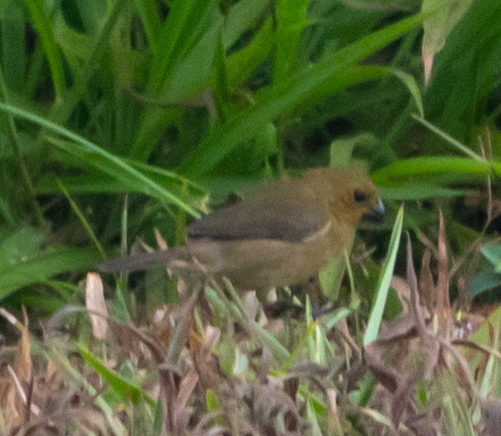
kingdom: Animalia
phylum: Chordata
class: Aves
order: Passeriformes
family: Thraupidae
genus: Sporophila
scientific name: Sporophila corvina
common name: Variable seedeater
